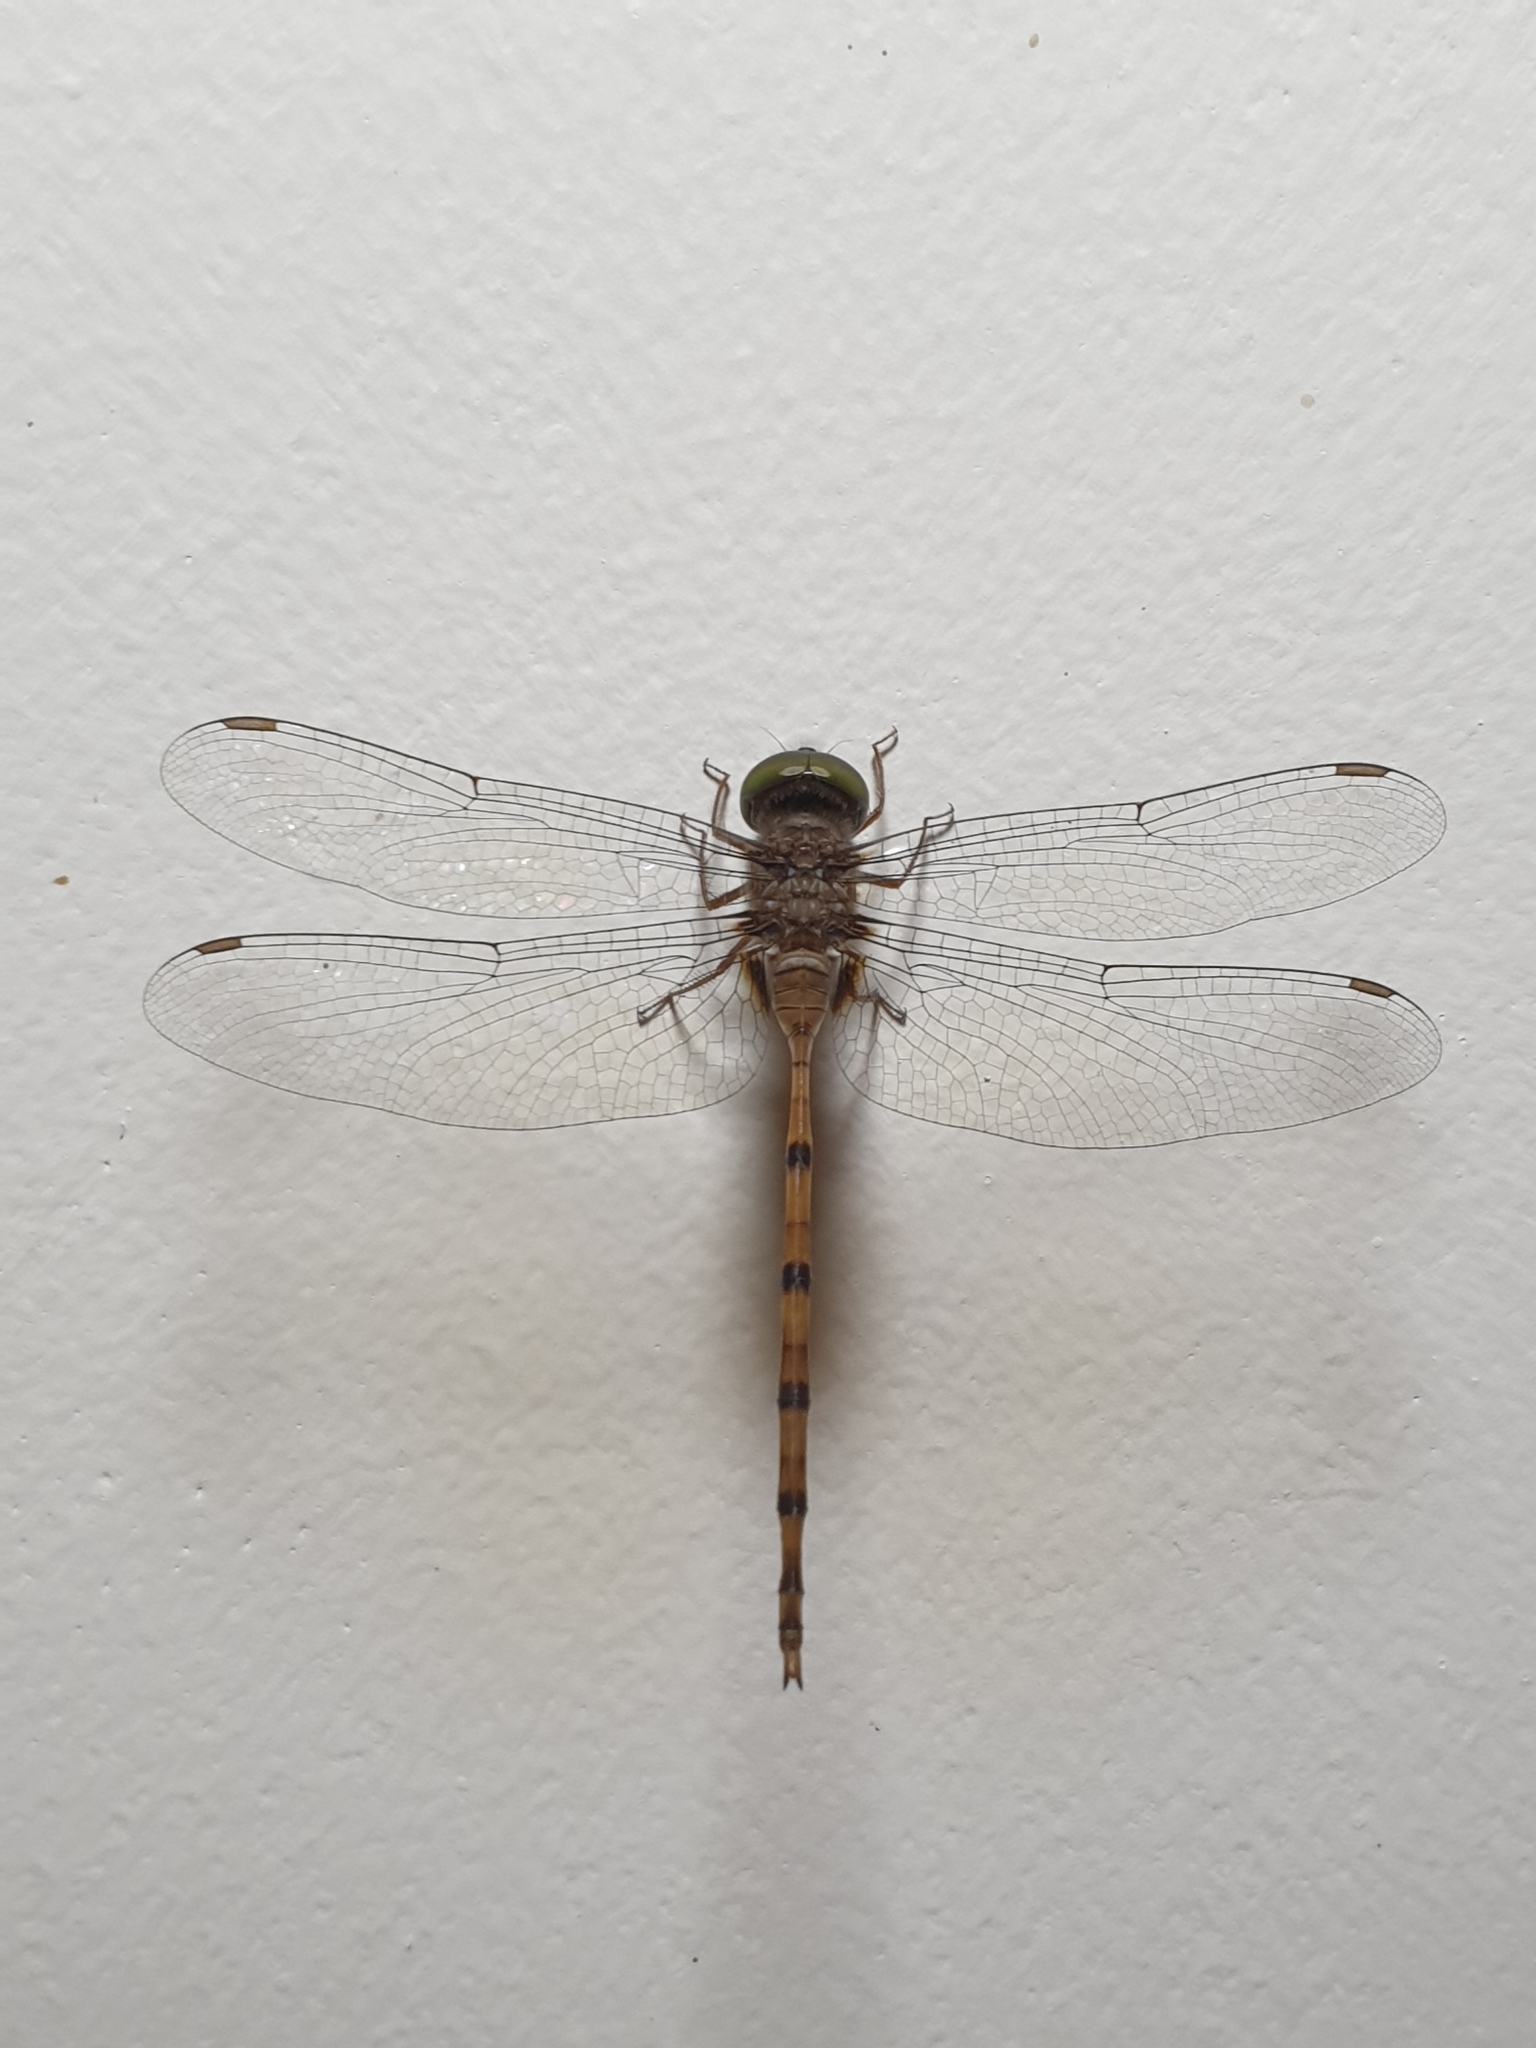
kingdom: Animalia
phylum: Arthropoda
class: Insecta
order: Odonata
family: Libellulidae
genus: Zyxomma
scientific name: Zyxomma petiolatum
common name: Dingy dusk-darter
